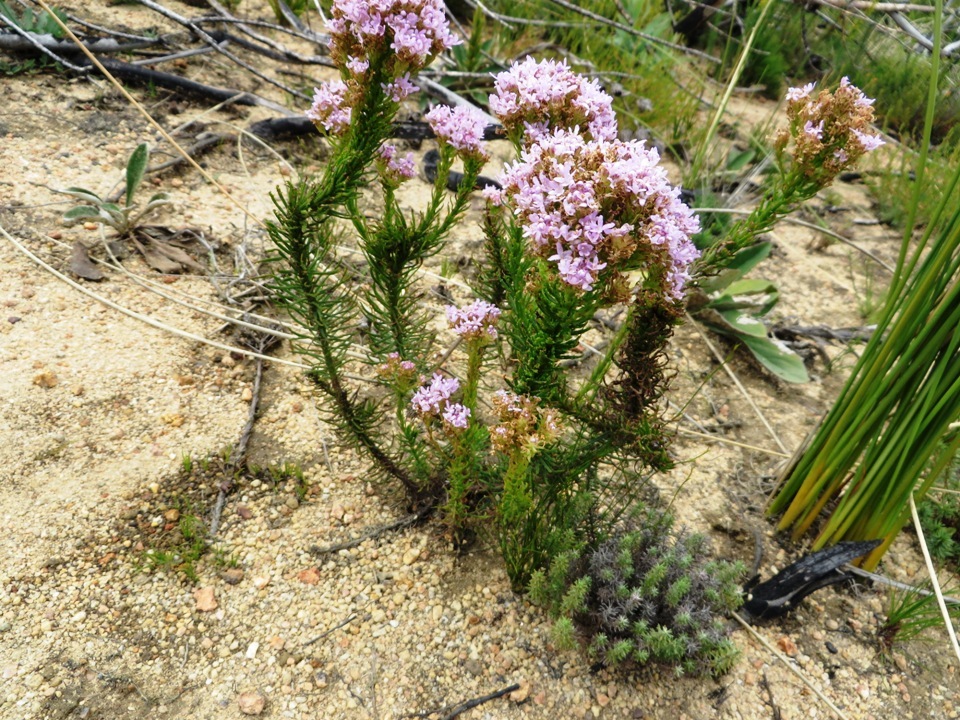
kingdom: Plantae
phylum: Tracheophyta
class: Magnoliopsida
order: Lamiales
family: Scrophulariaceae
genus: Pseudoselago
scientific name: Pseudoselago spuria
